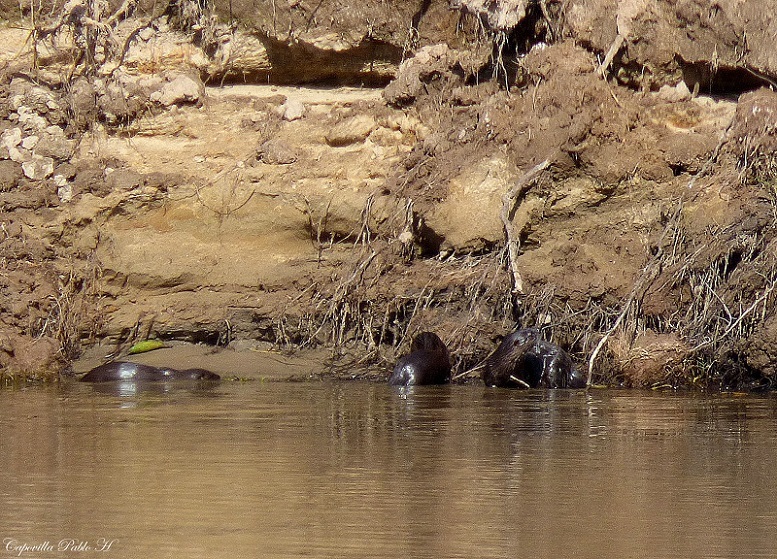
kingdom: Animalia
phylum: Chordata
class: Mammalia
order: Carnivora
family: Mustelidae
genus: Lontra
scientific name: Lontra longicaudis
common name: Neotropical otter
